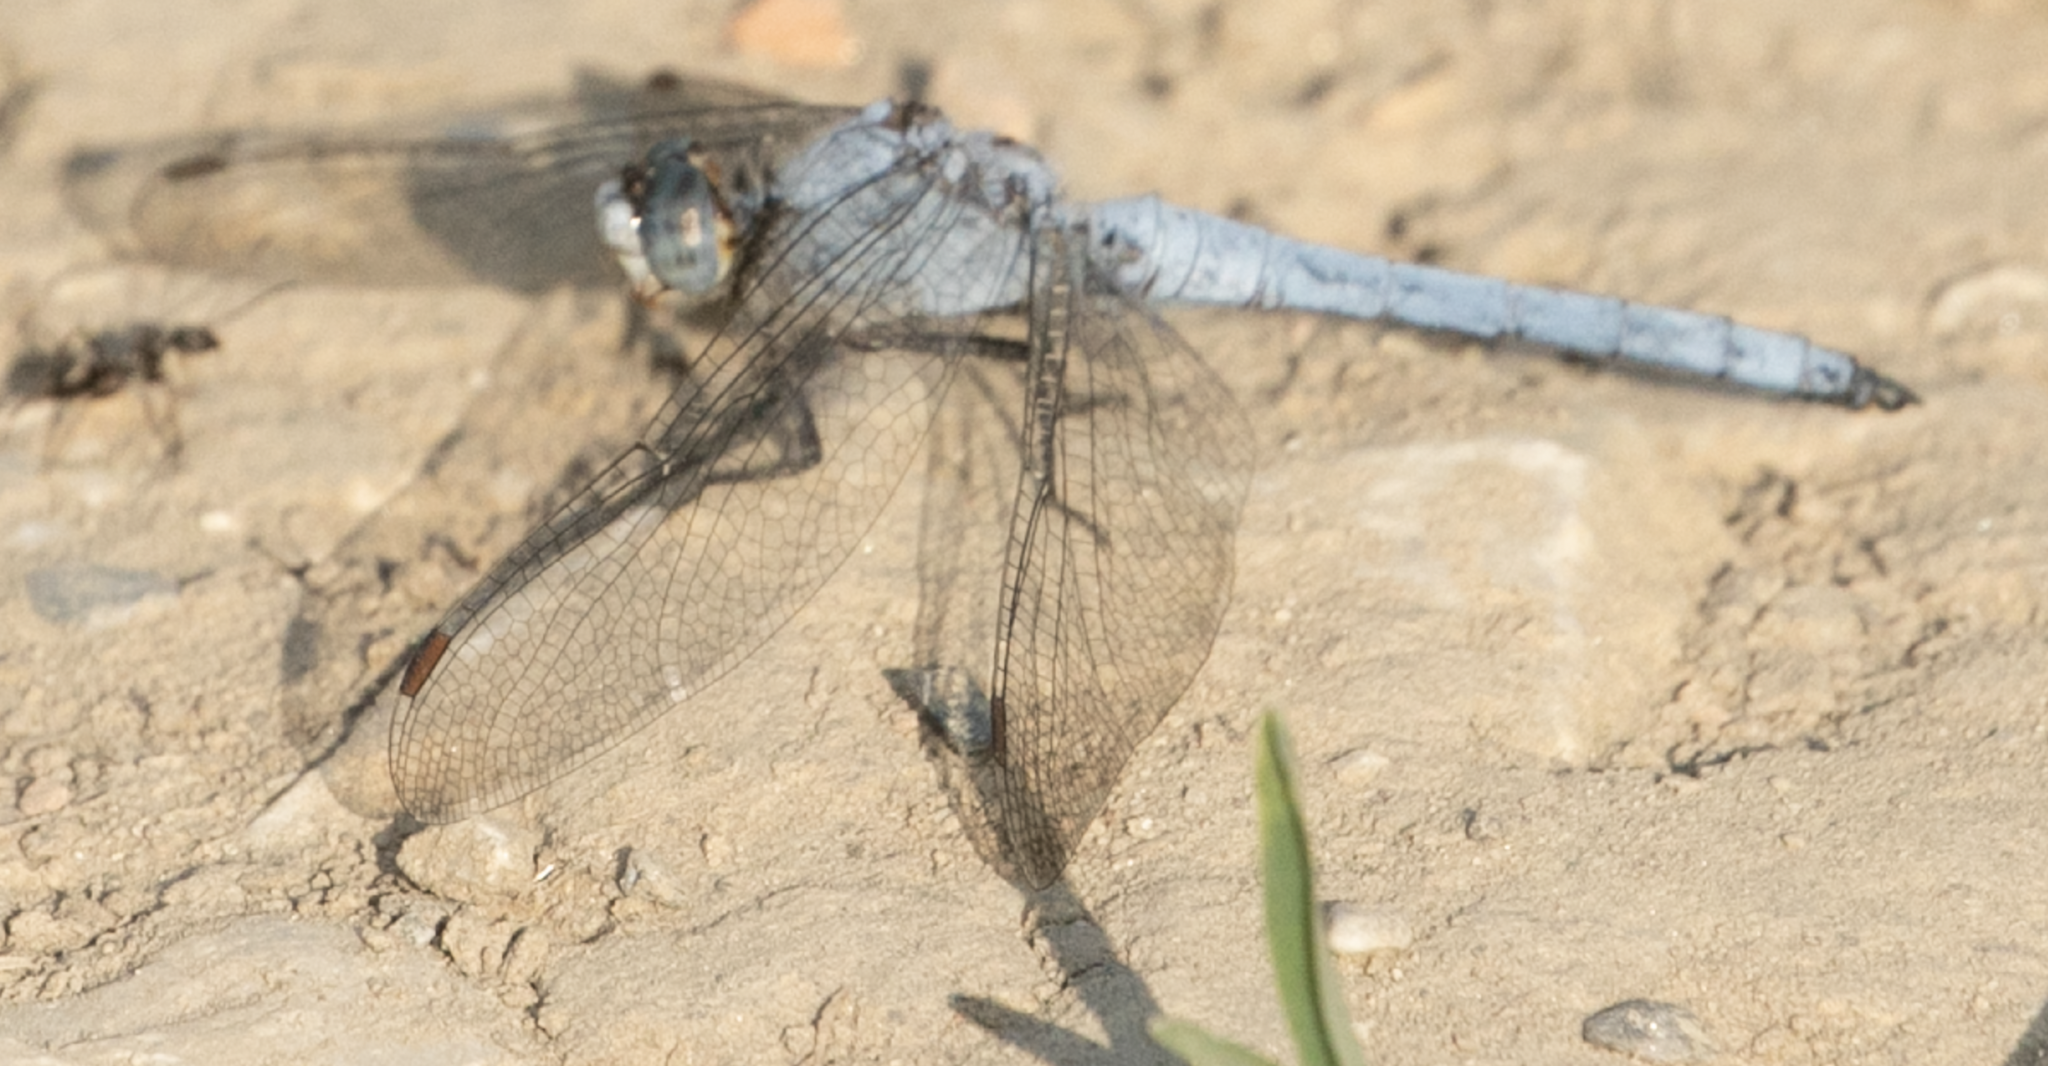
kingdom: Animalia
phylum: Arthropoda
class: Insecta
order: Odonata
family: Libellulidae
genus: Orthetrum
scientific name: Orthetrum brunneum
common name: Southern skimmer
